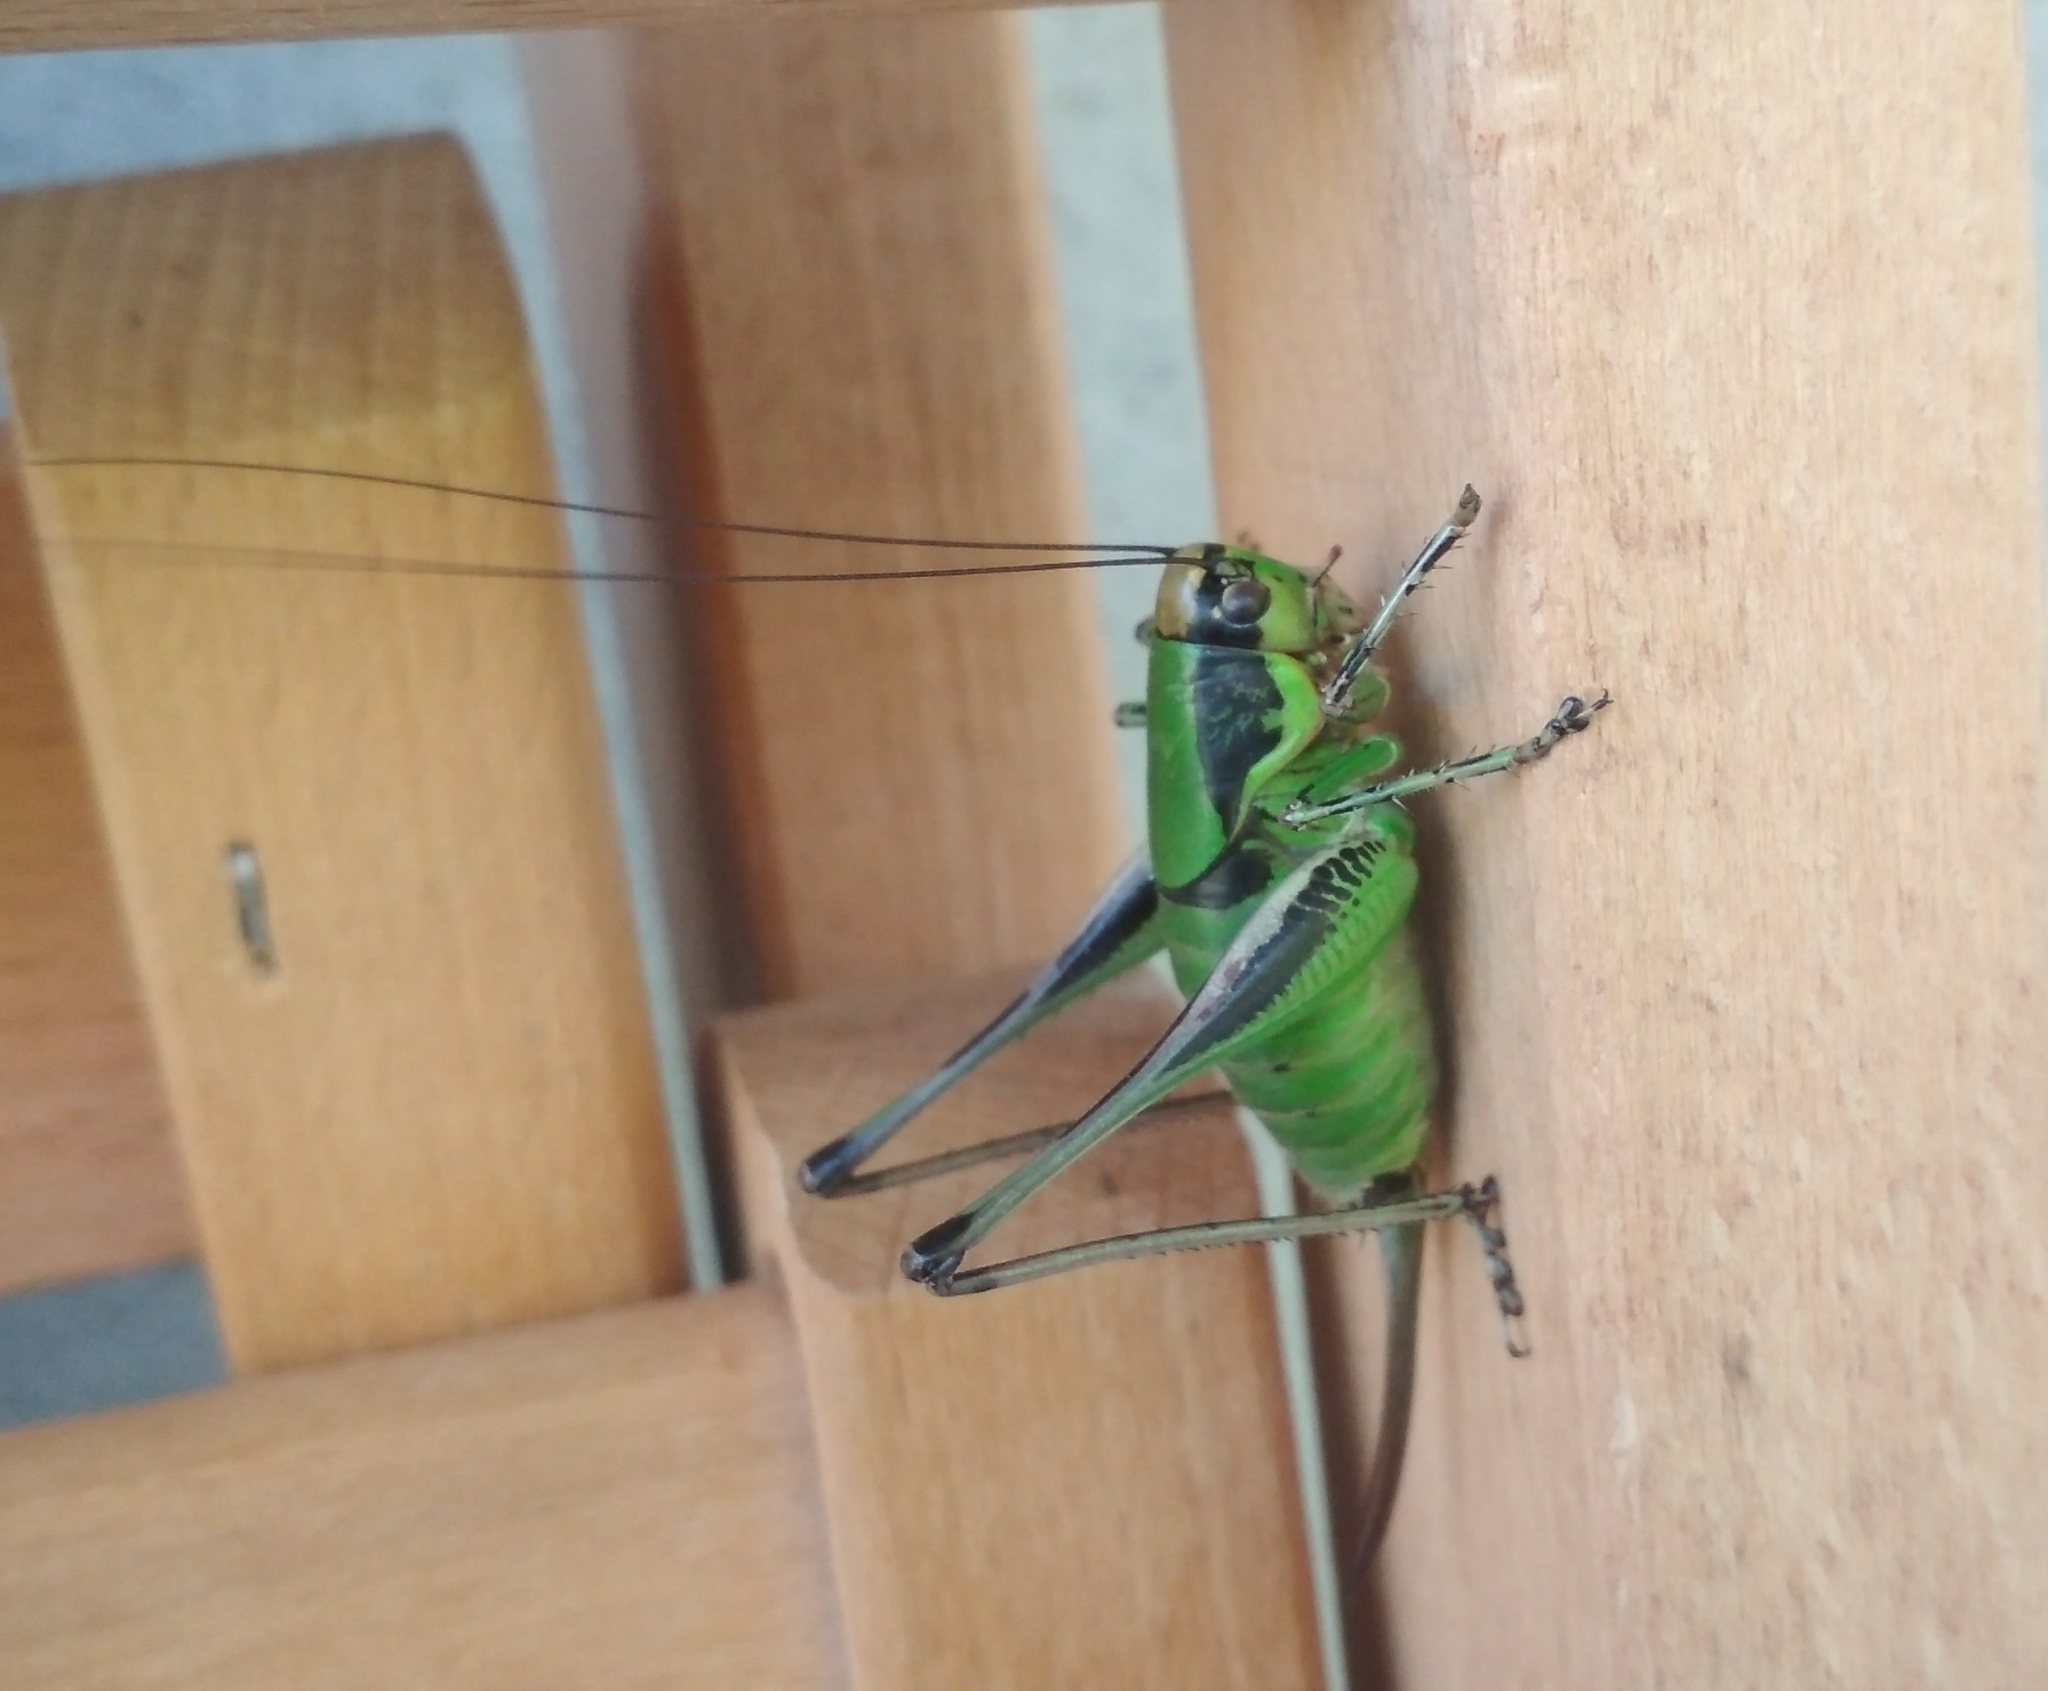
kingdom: Animalia
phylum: Arthropoda
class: Insecta
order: Orthoptera
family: Tettigoniidae
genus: Eupholidoptera
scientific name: Eupholidoptera chabrieri
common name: Chabrier's marbled bush-cricket
